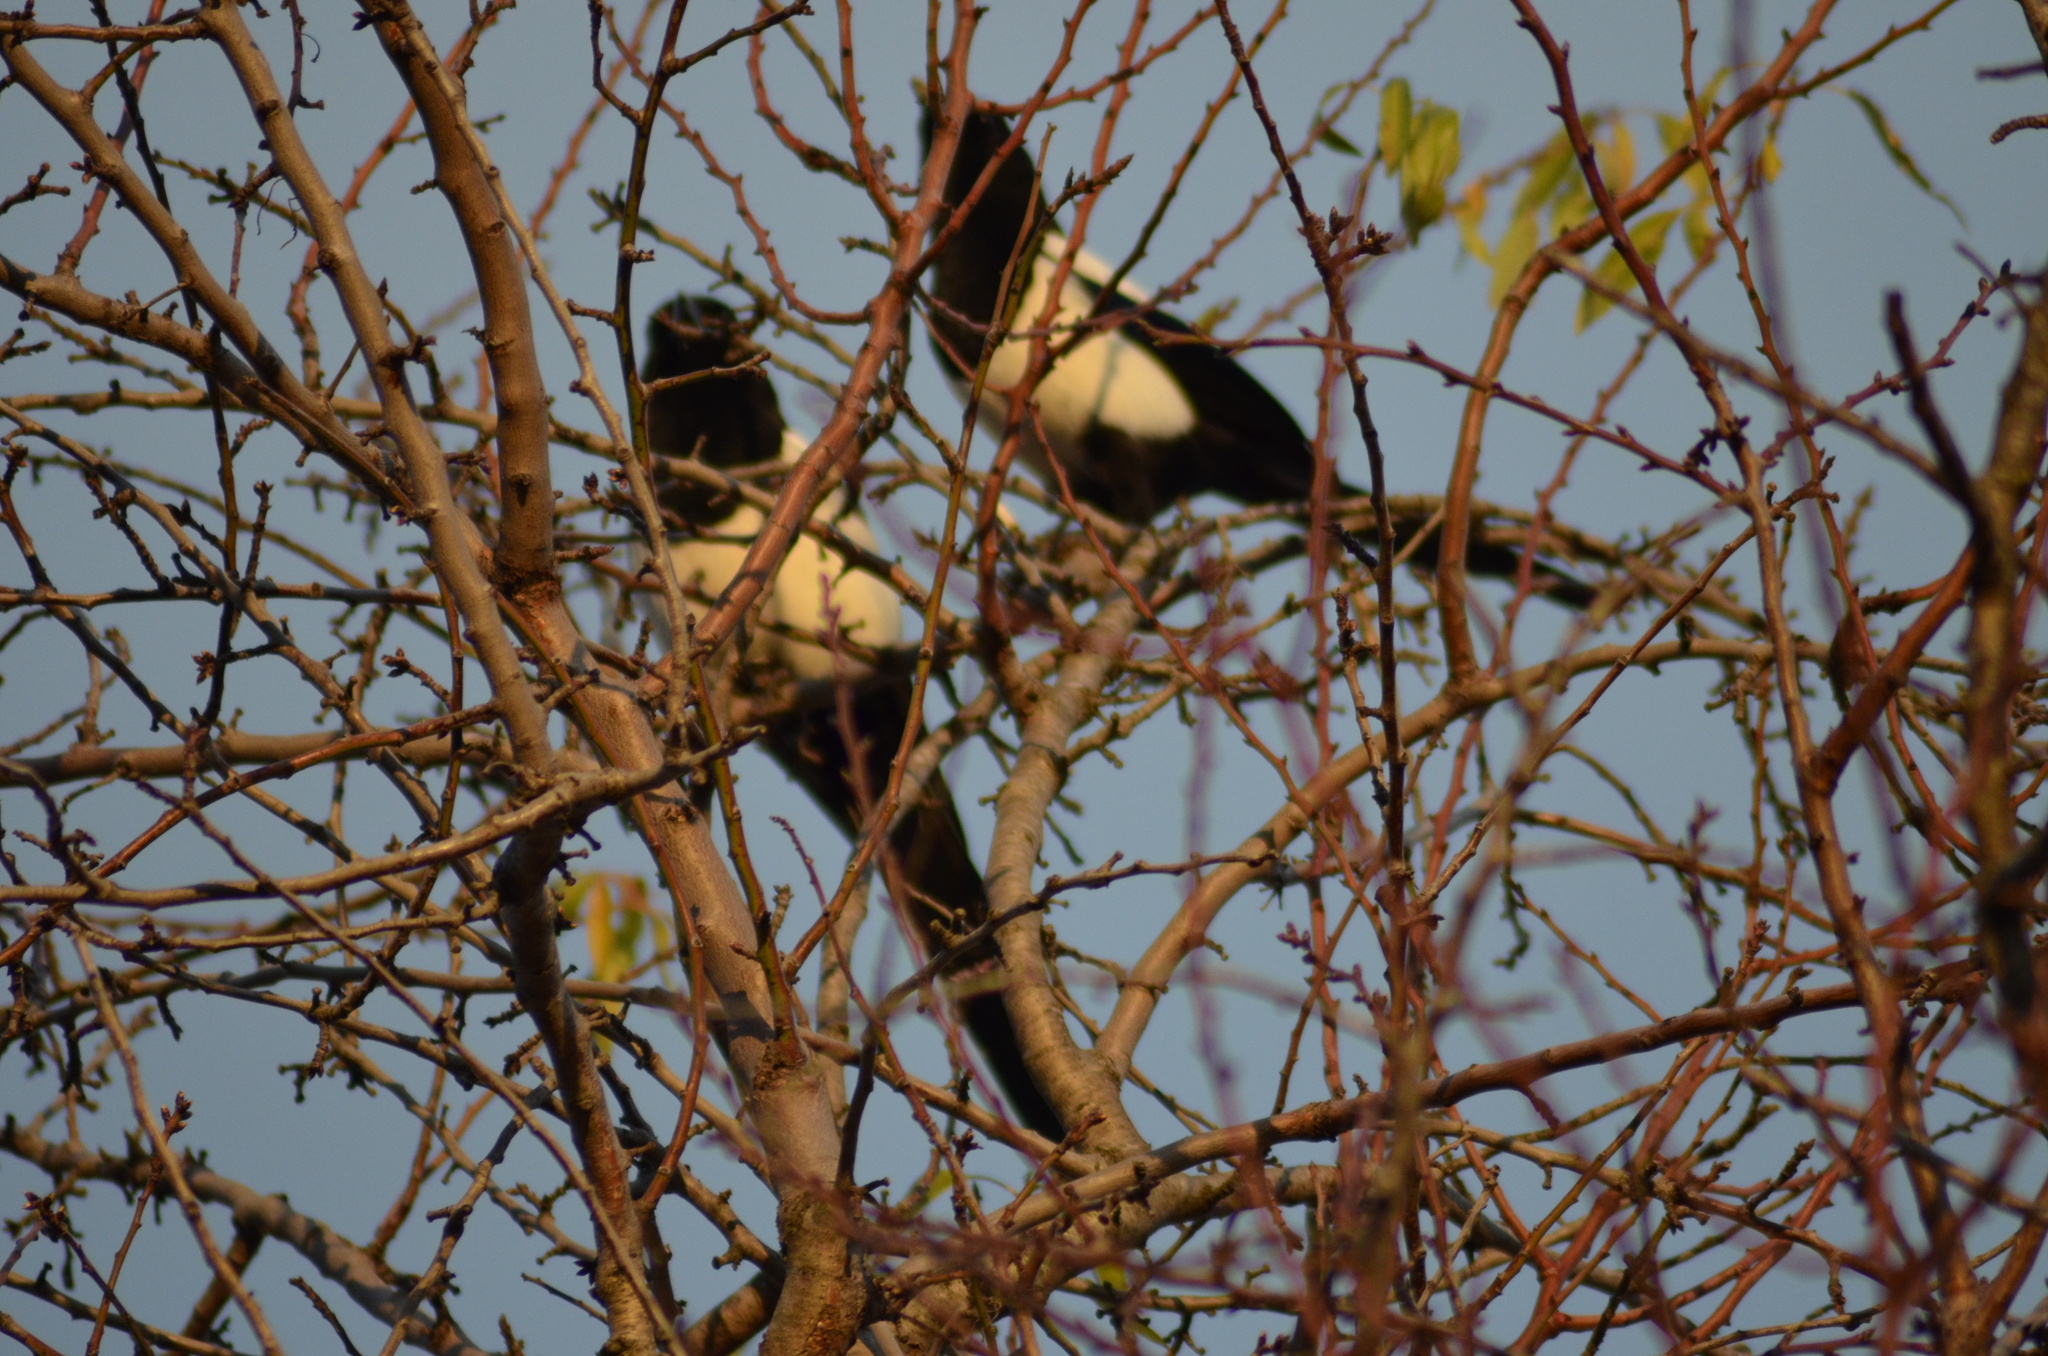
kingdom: Animalia
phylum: Chordata
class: Aves
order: Passeriformes
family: Corvidae
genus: Pica
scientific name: Pica pica
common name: Eurasian magpie
